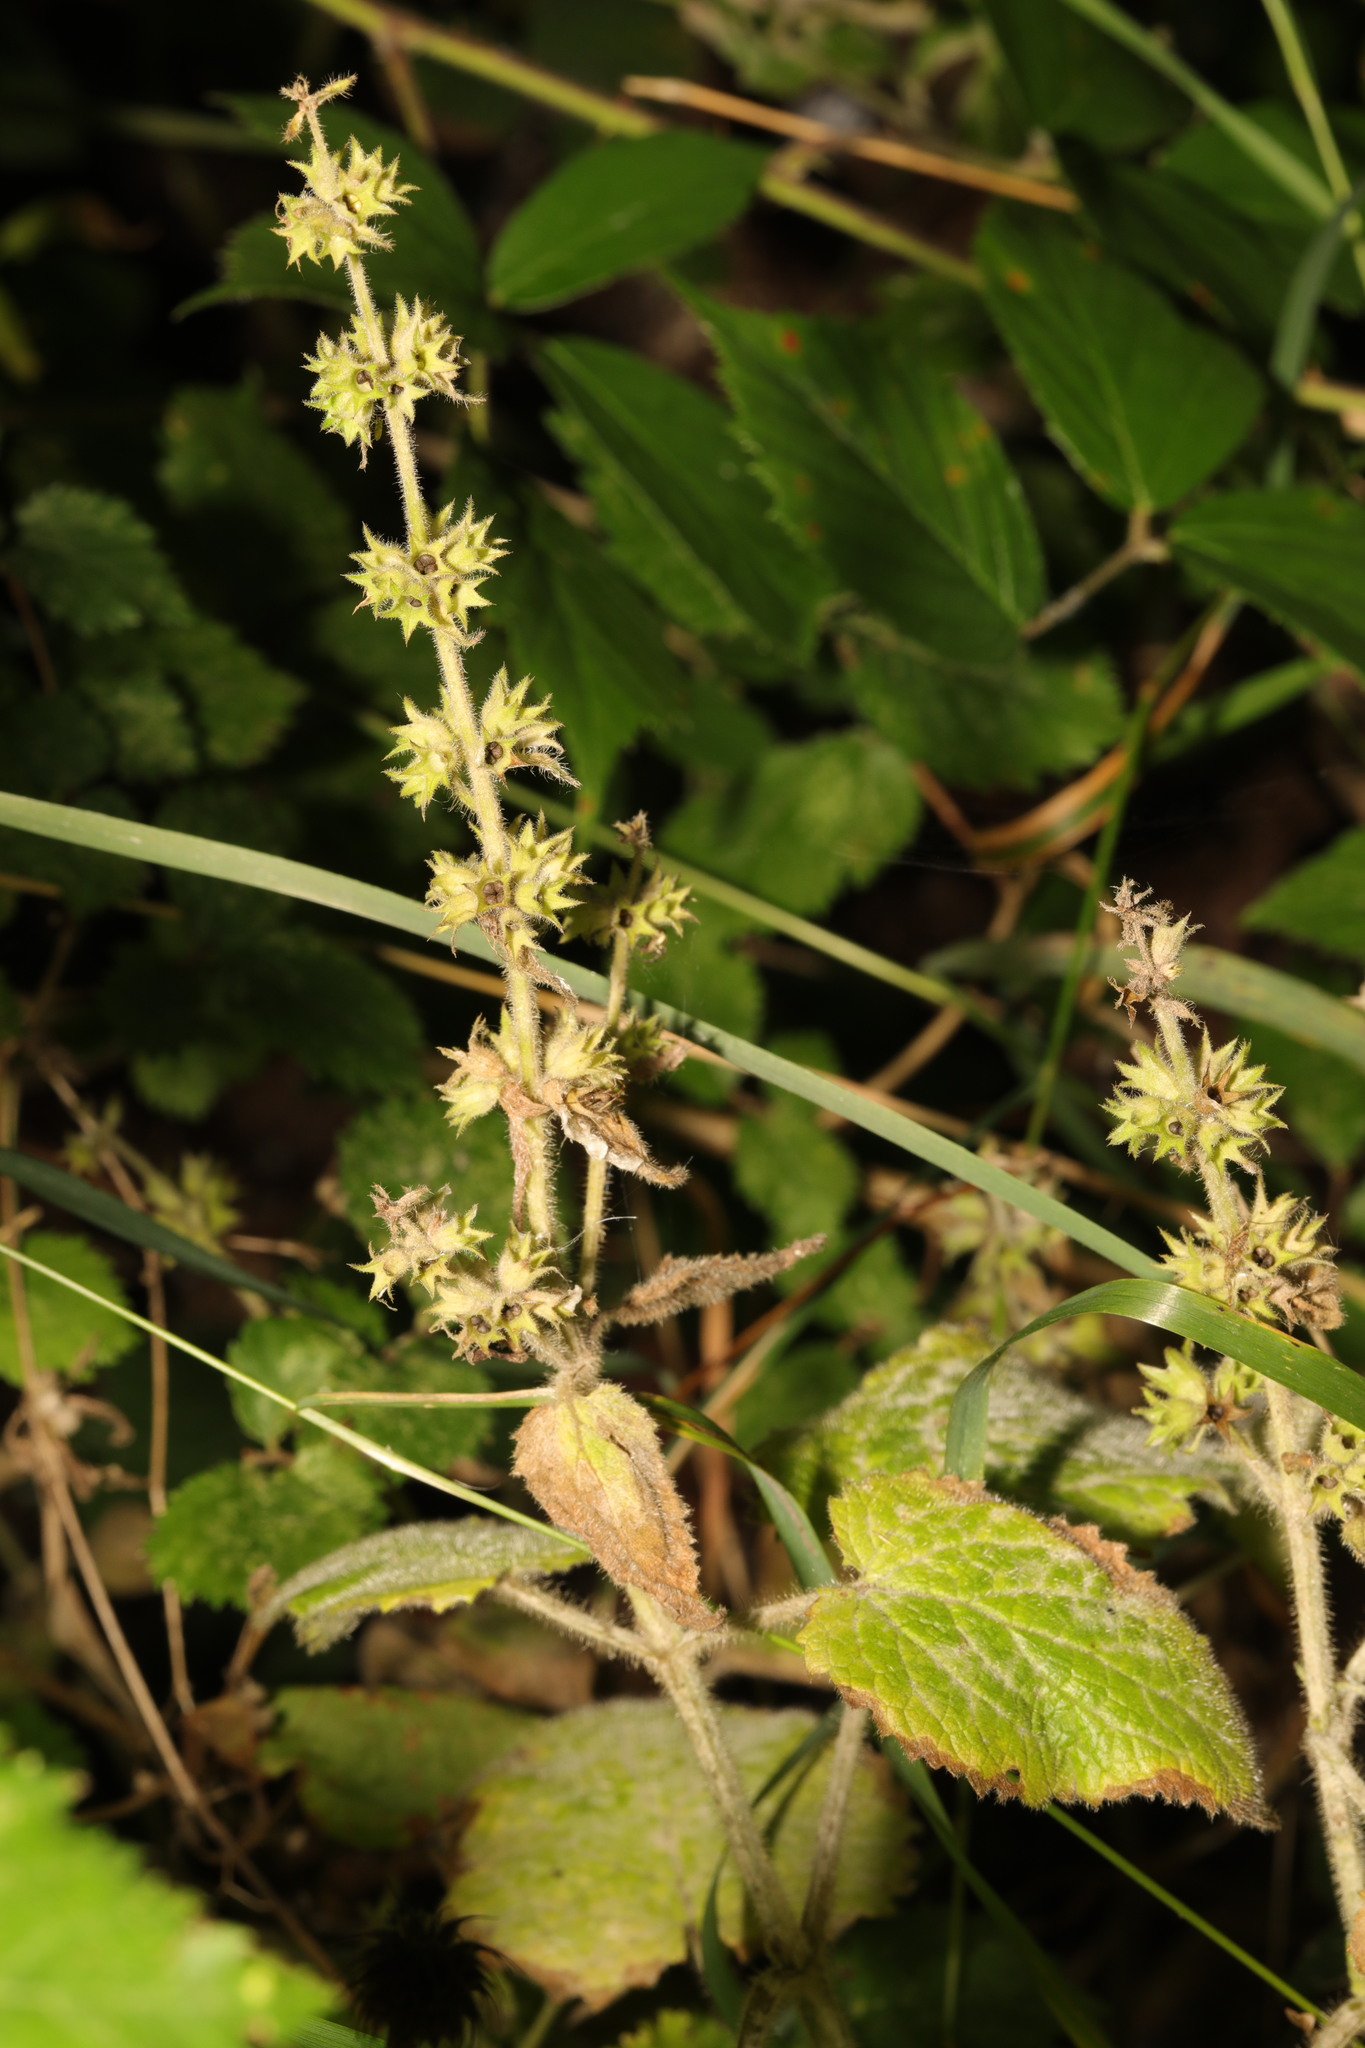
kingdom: Plantae
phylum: Tracheophyta
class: Magnoliopsida
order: Lamiales
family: Lamiaceae
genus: Stachys
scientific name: Stachys sylvatica
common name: Hedge woundwort
